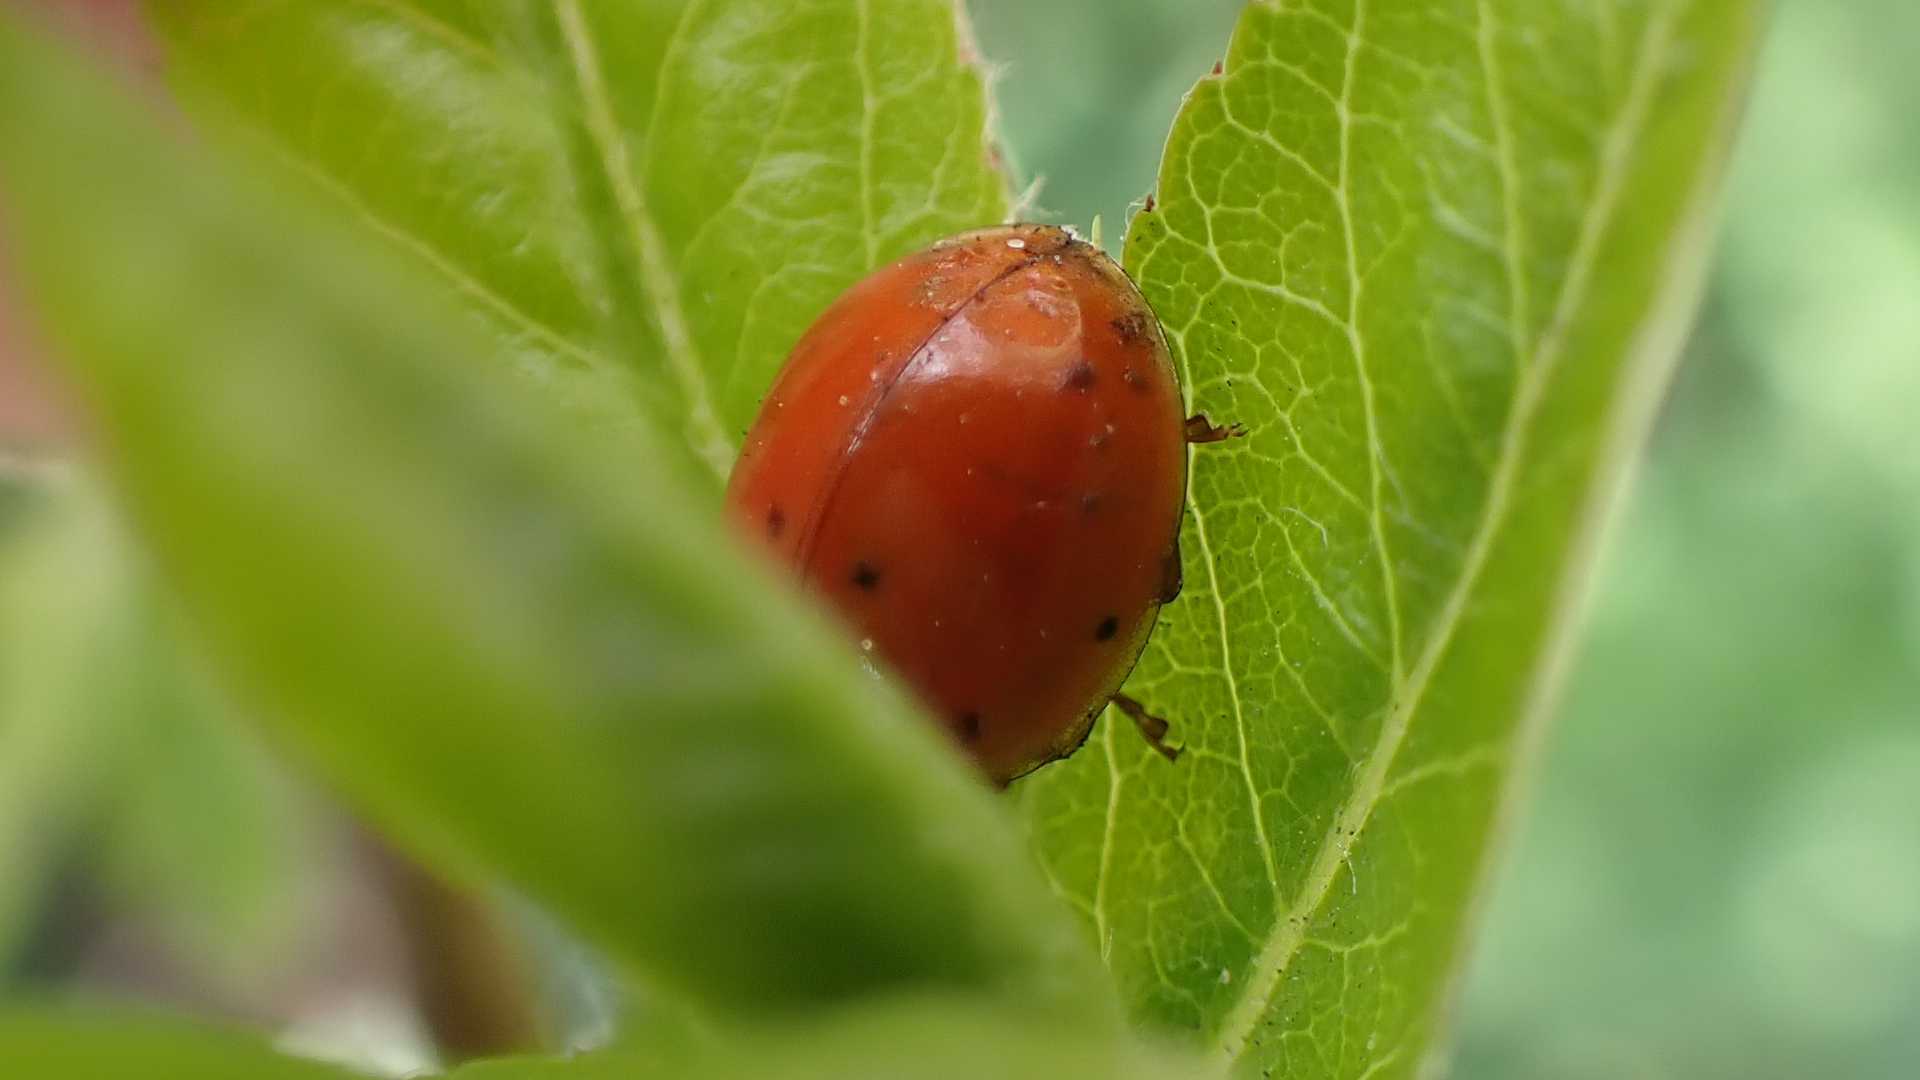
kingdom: Fungi
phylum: Ascomycota
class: Laboulbeniomycetes
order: Laboulbeniales
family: Laboulbeniaceae
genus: Hesperomyces
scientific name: Hesperomyces harmoniae
